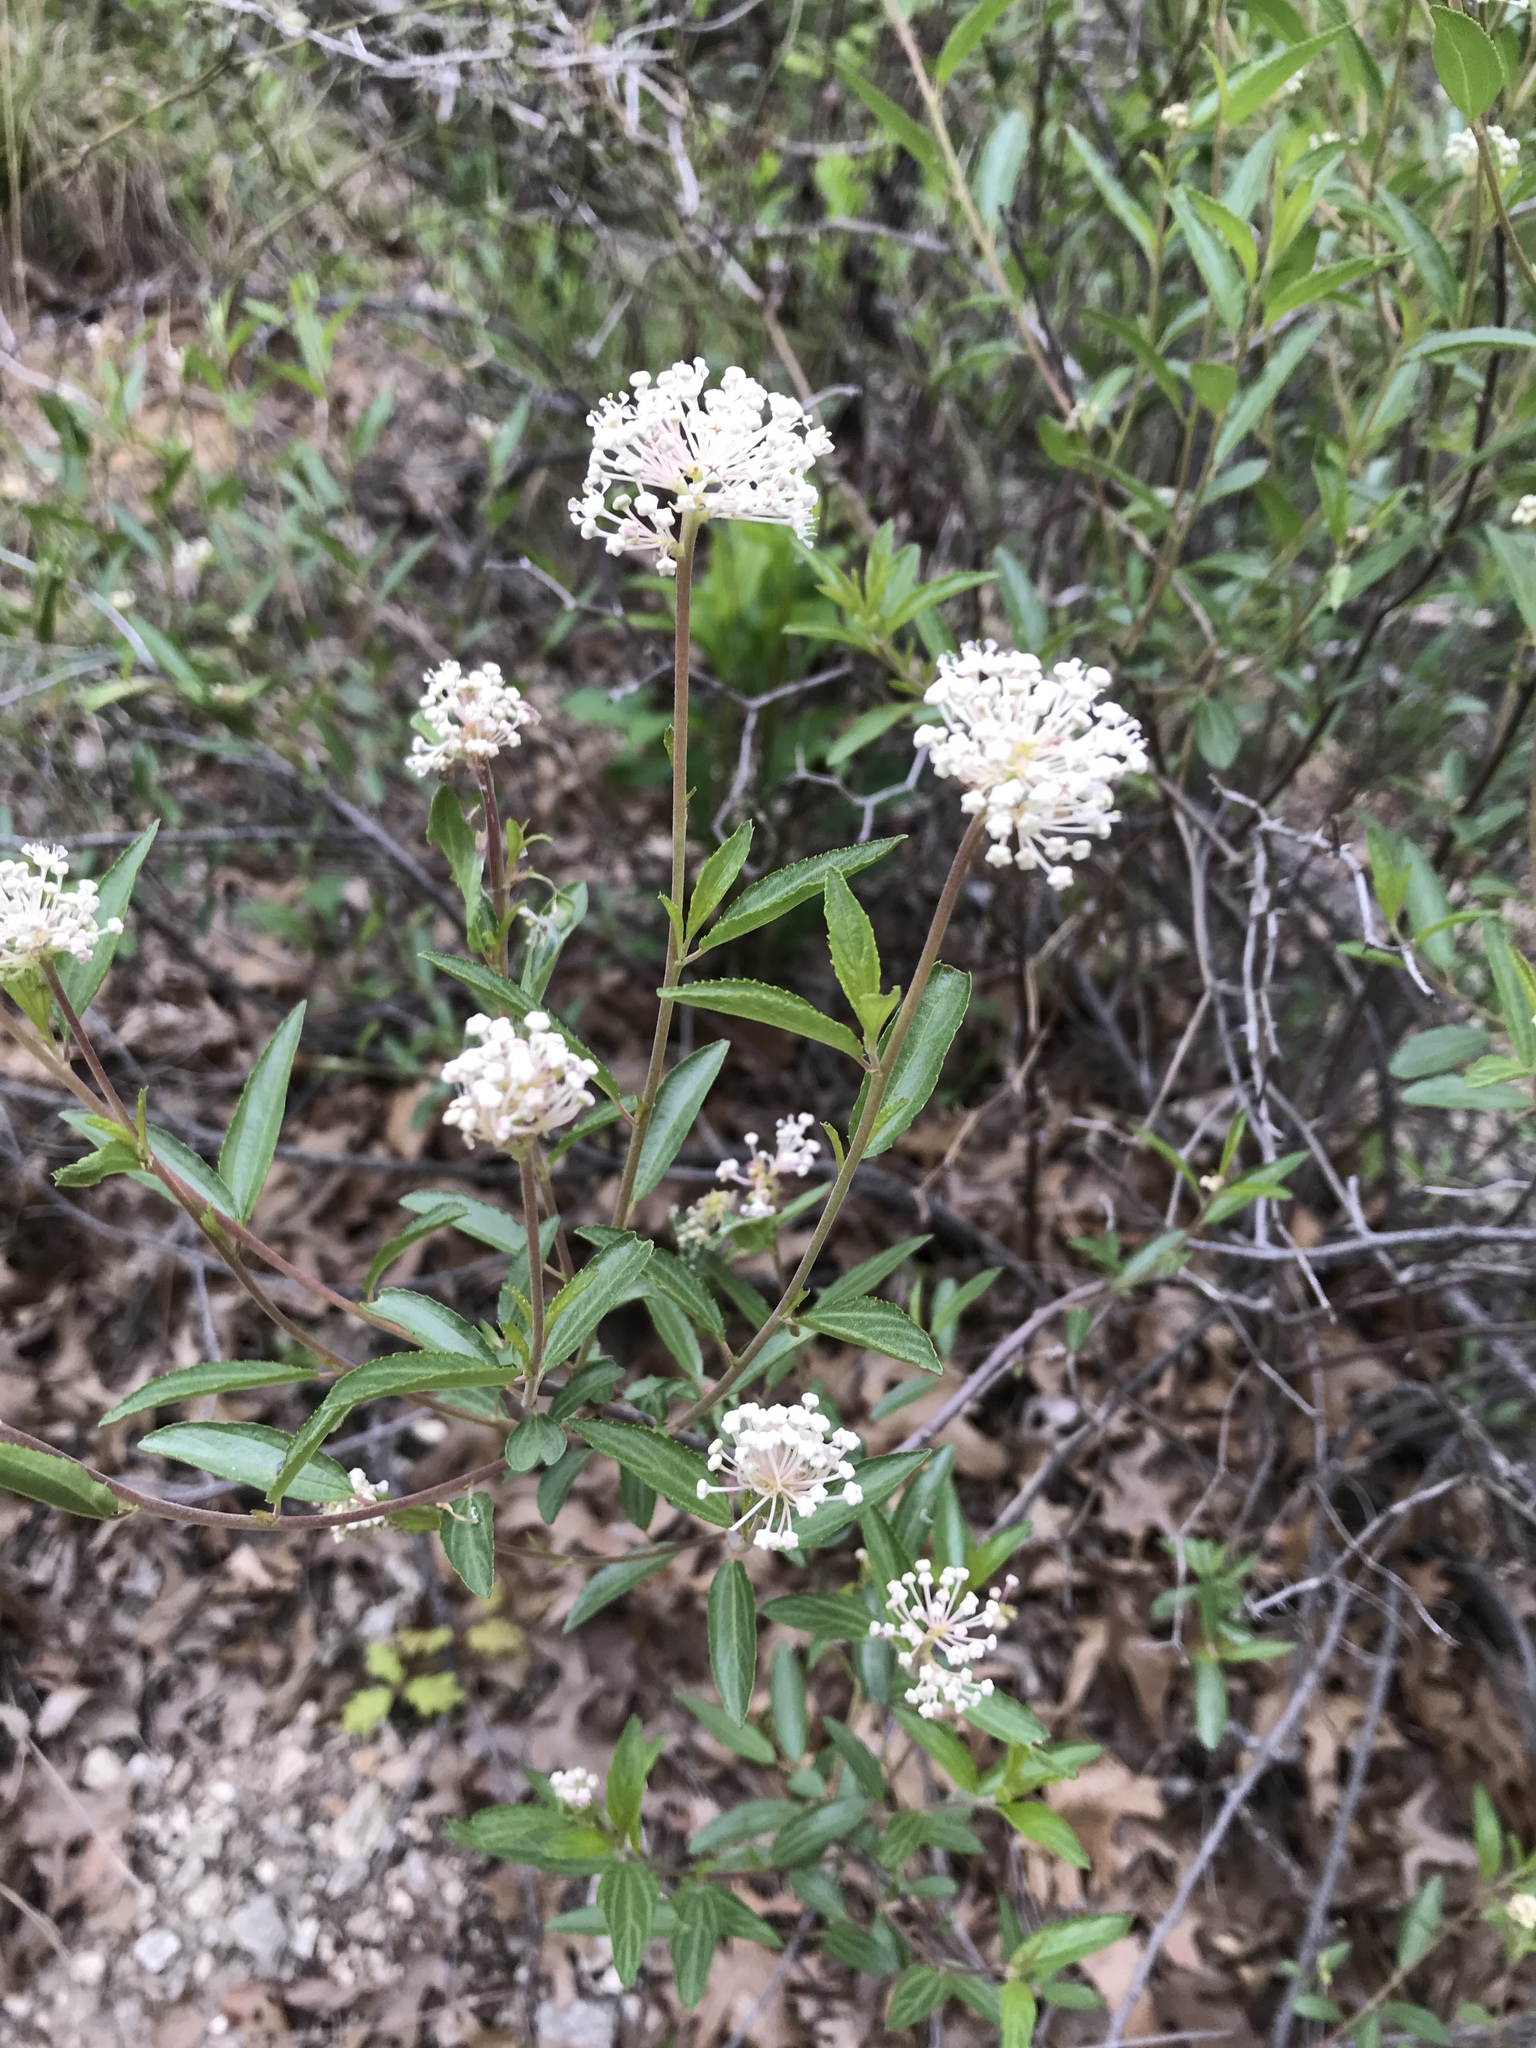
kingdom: Plantae
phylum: Tracheophyta
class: Magnoliopsida
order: Rosales
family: Rhamnaceae
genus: Ceanothus
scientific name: Ceanothus herbaceus
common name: Inland ceanothus
